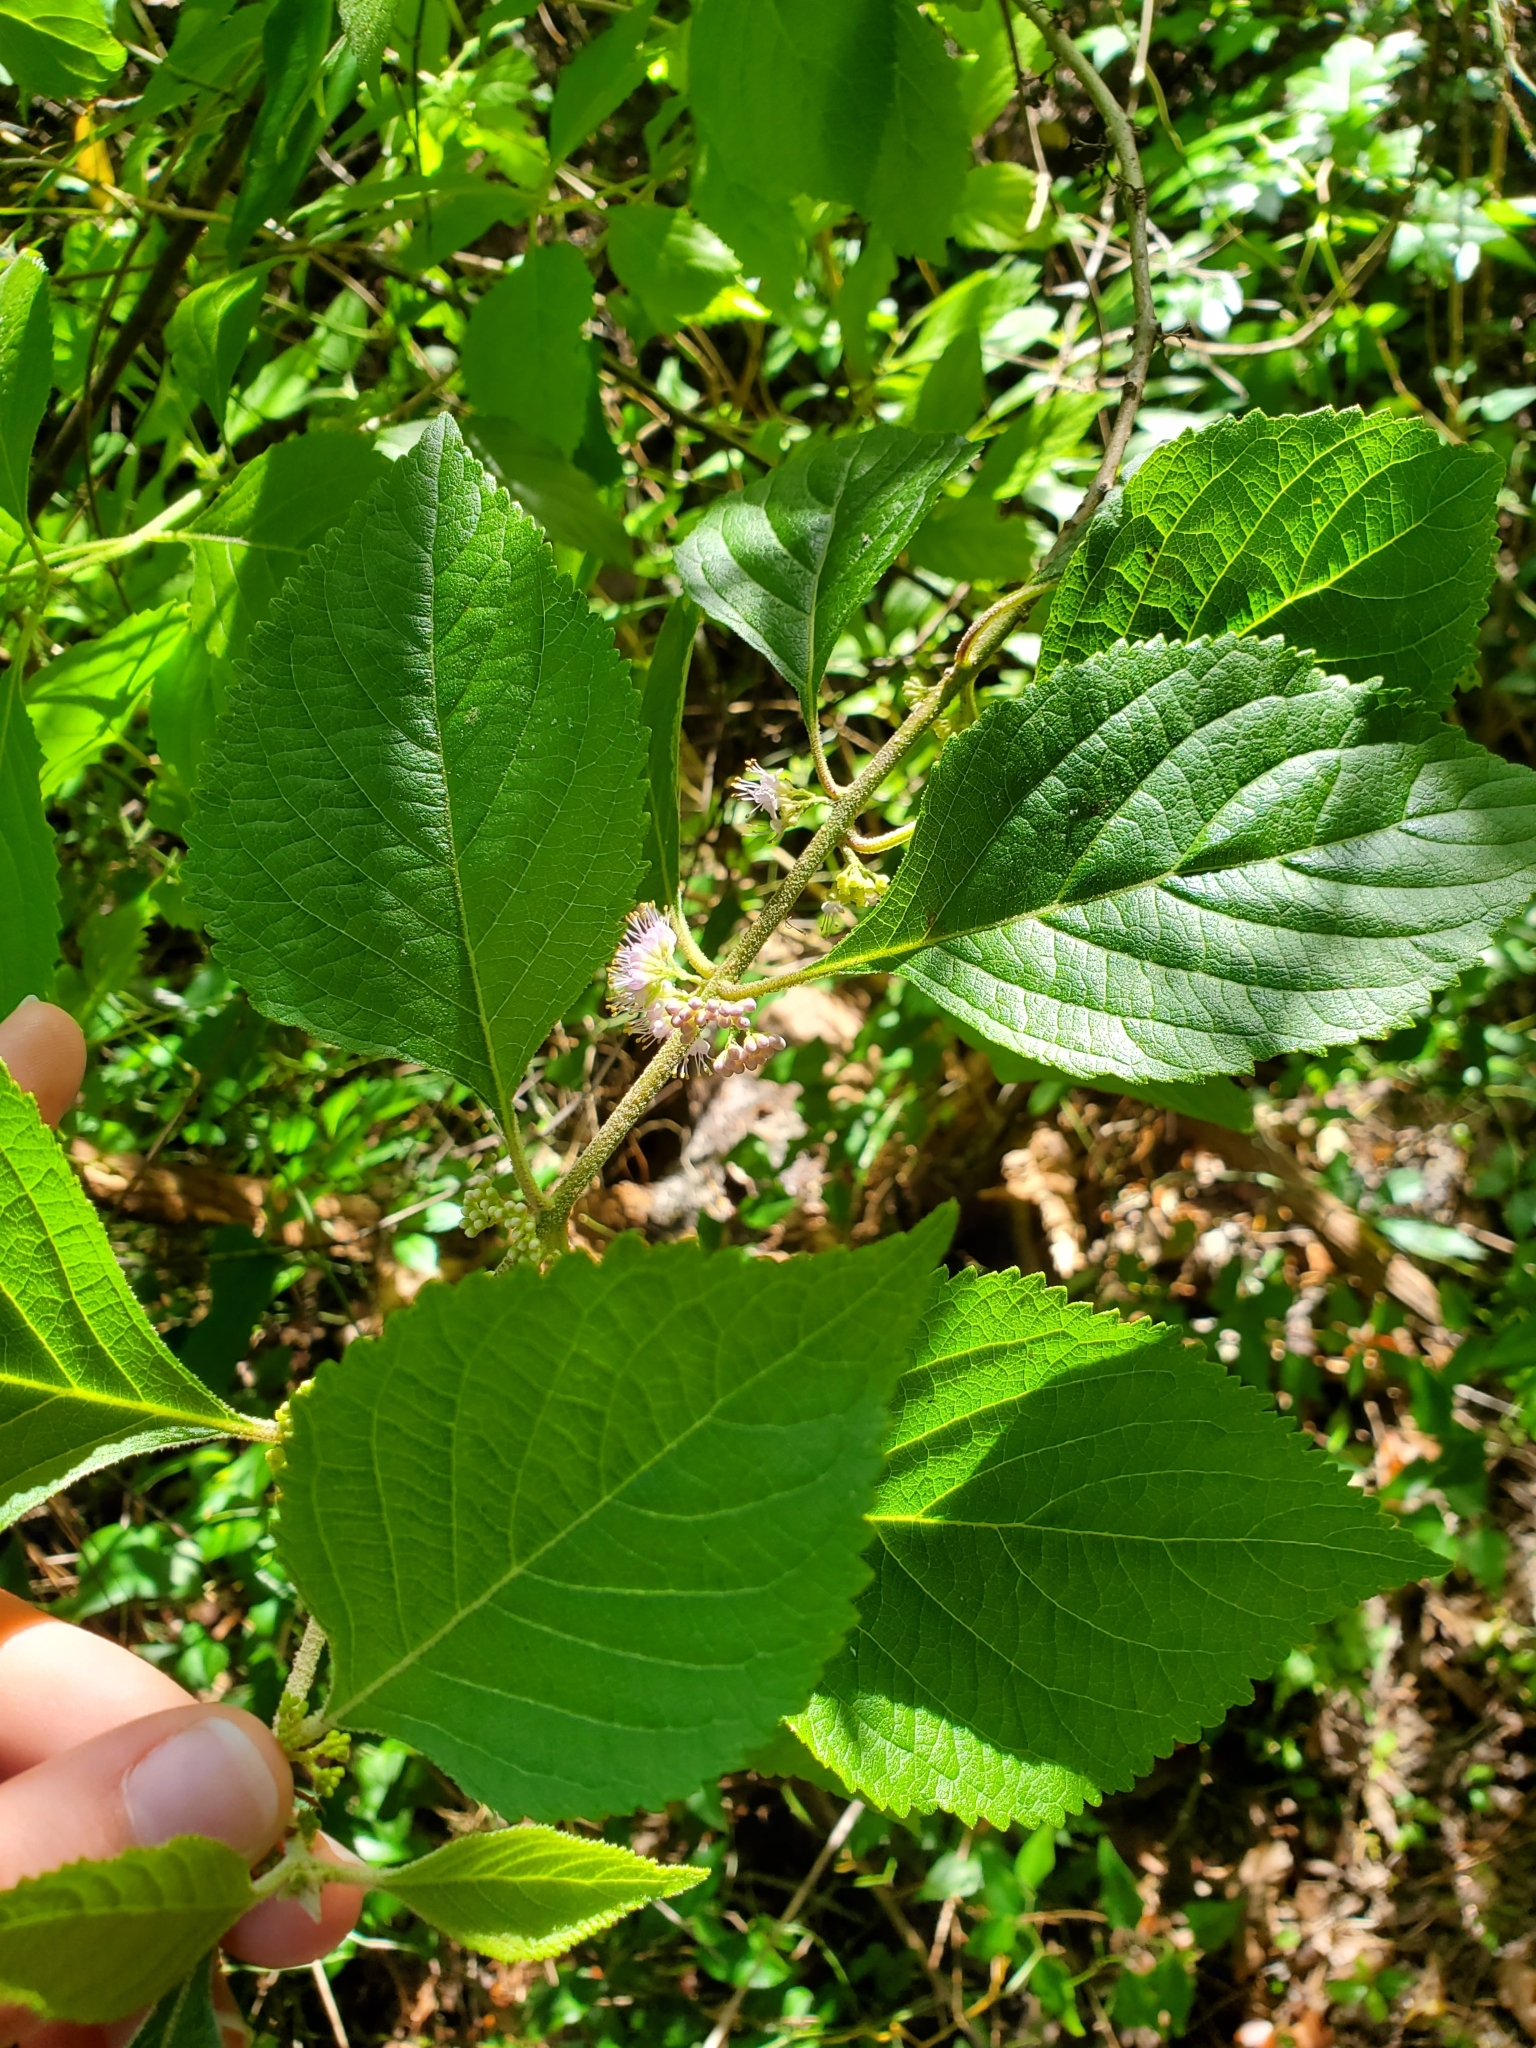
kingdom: Plantae
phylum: Tracheophyta
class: Magnoliopsida
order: Lamiales
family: Lamiaceae
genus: Callicarpa
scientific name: Callicarpa americana
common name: American beautyberry
